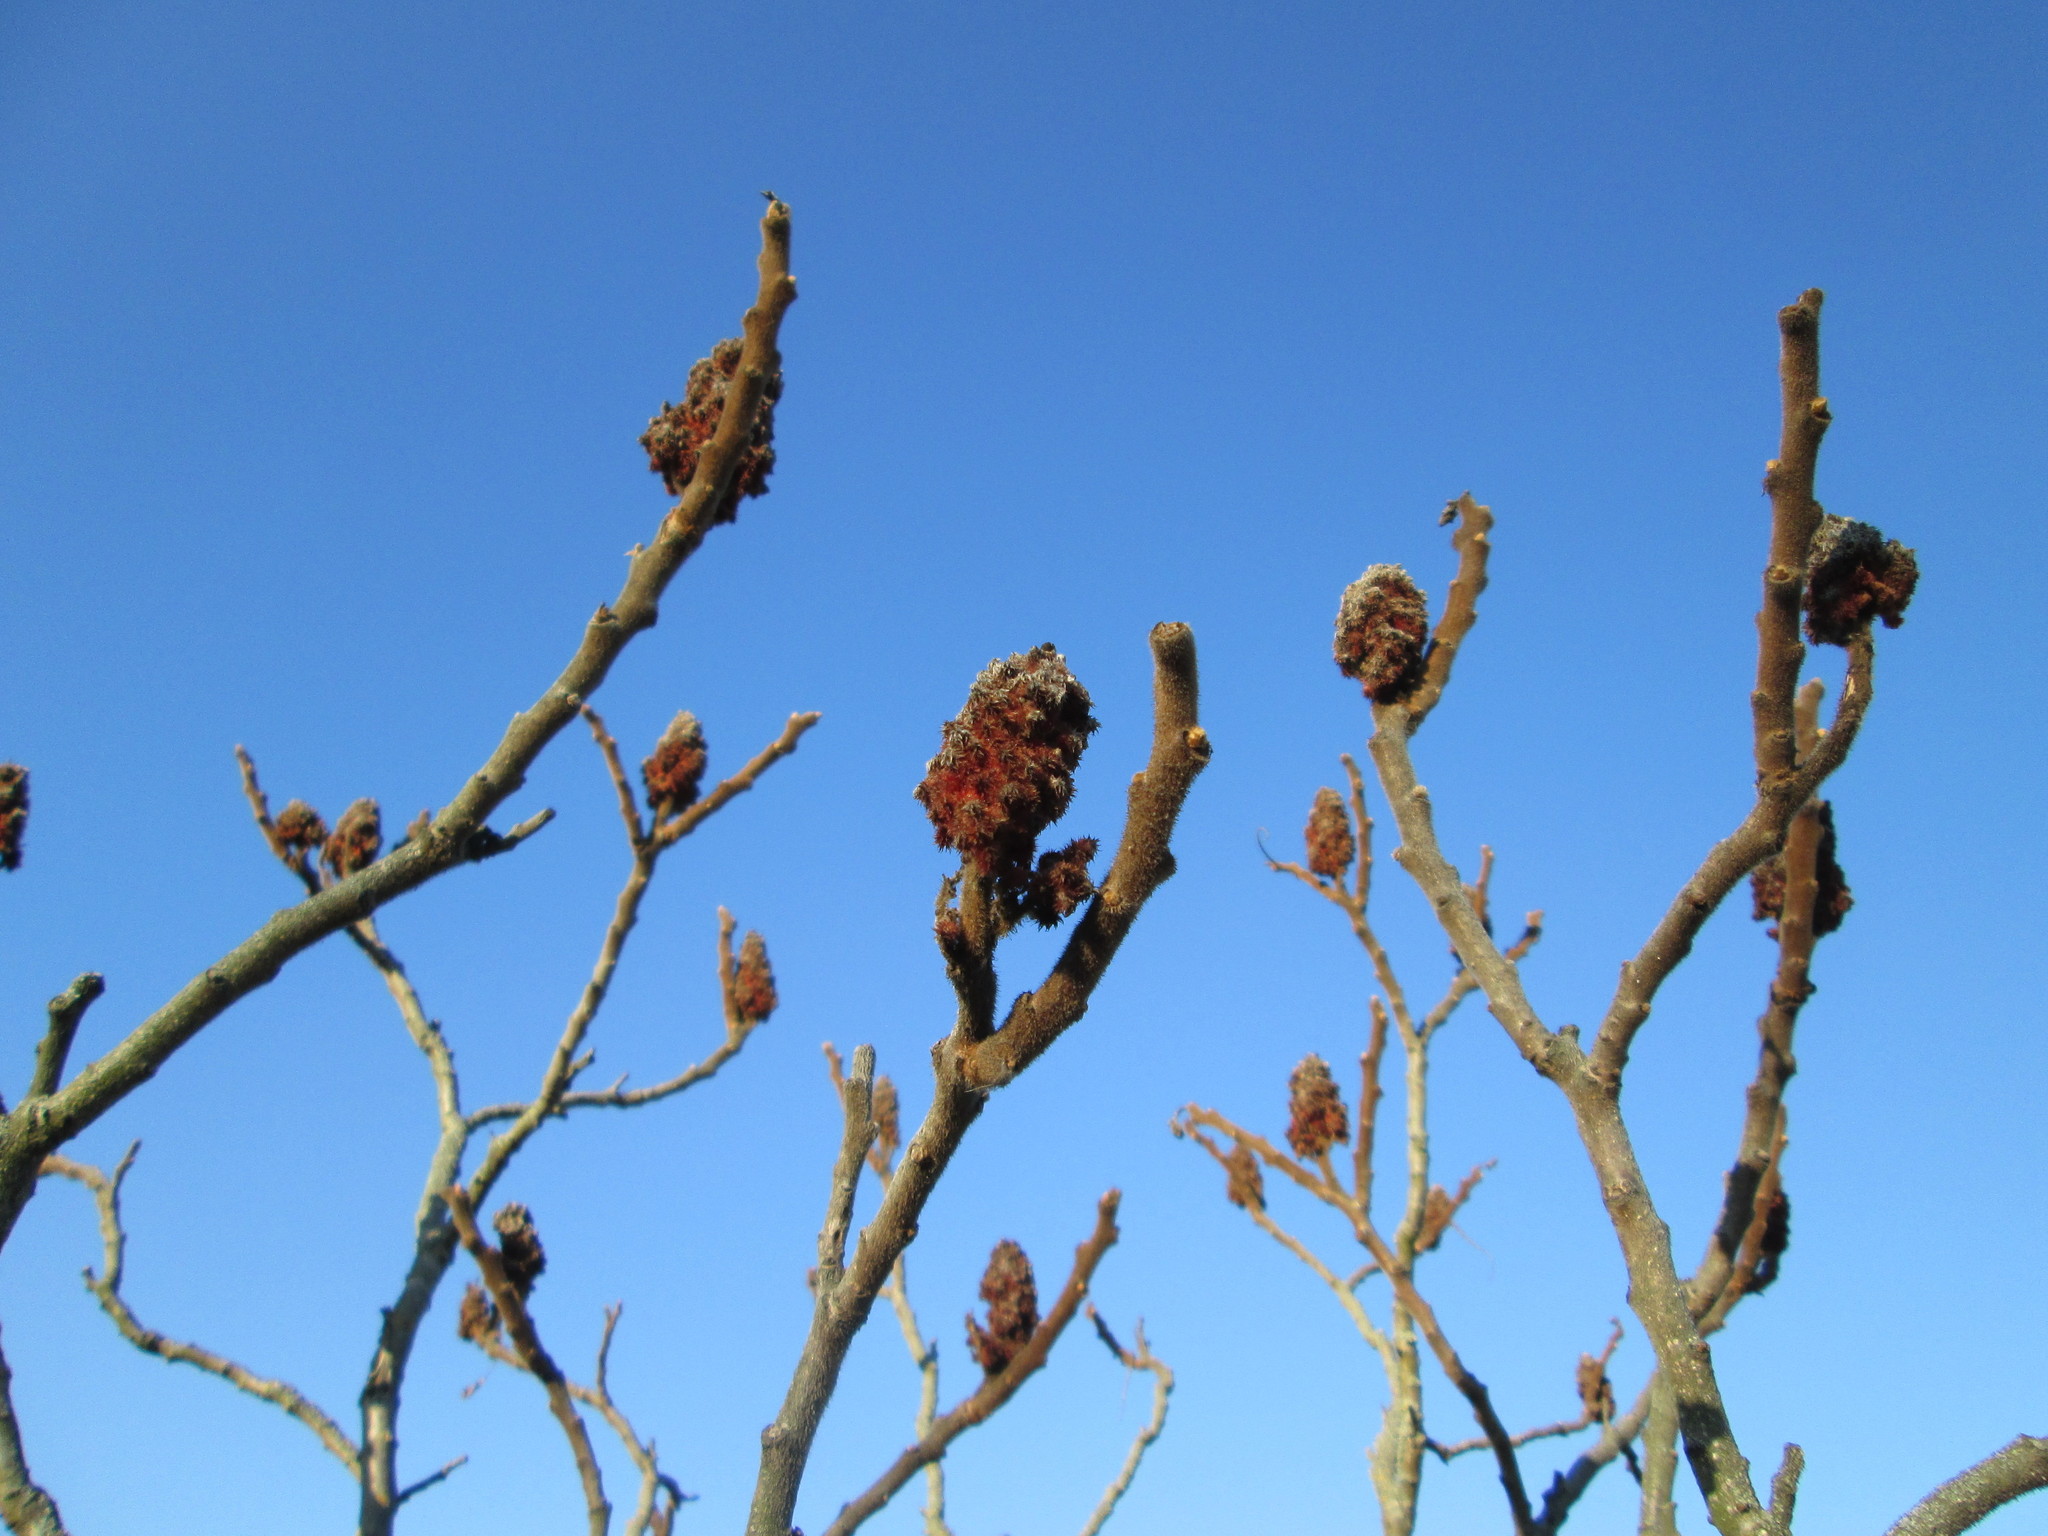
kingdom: Plantae
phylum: Tracheophyta
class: Magnoliopsida
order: Sapindales
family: Anacardiaceae
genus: Rhus
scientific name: Rhus typhina
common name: Staghorn sumac
